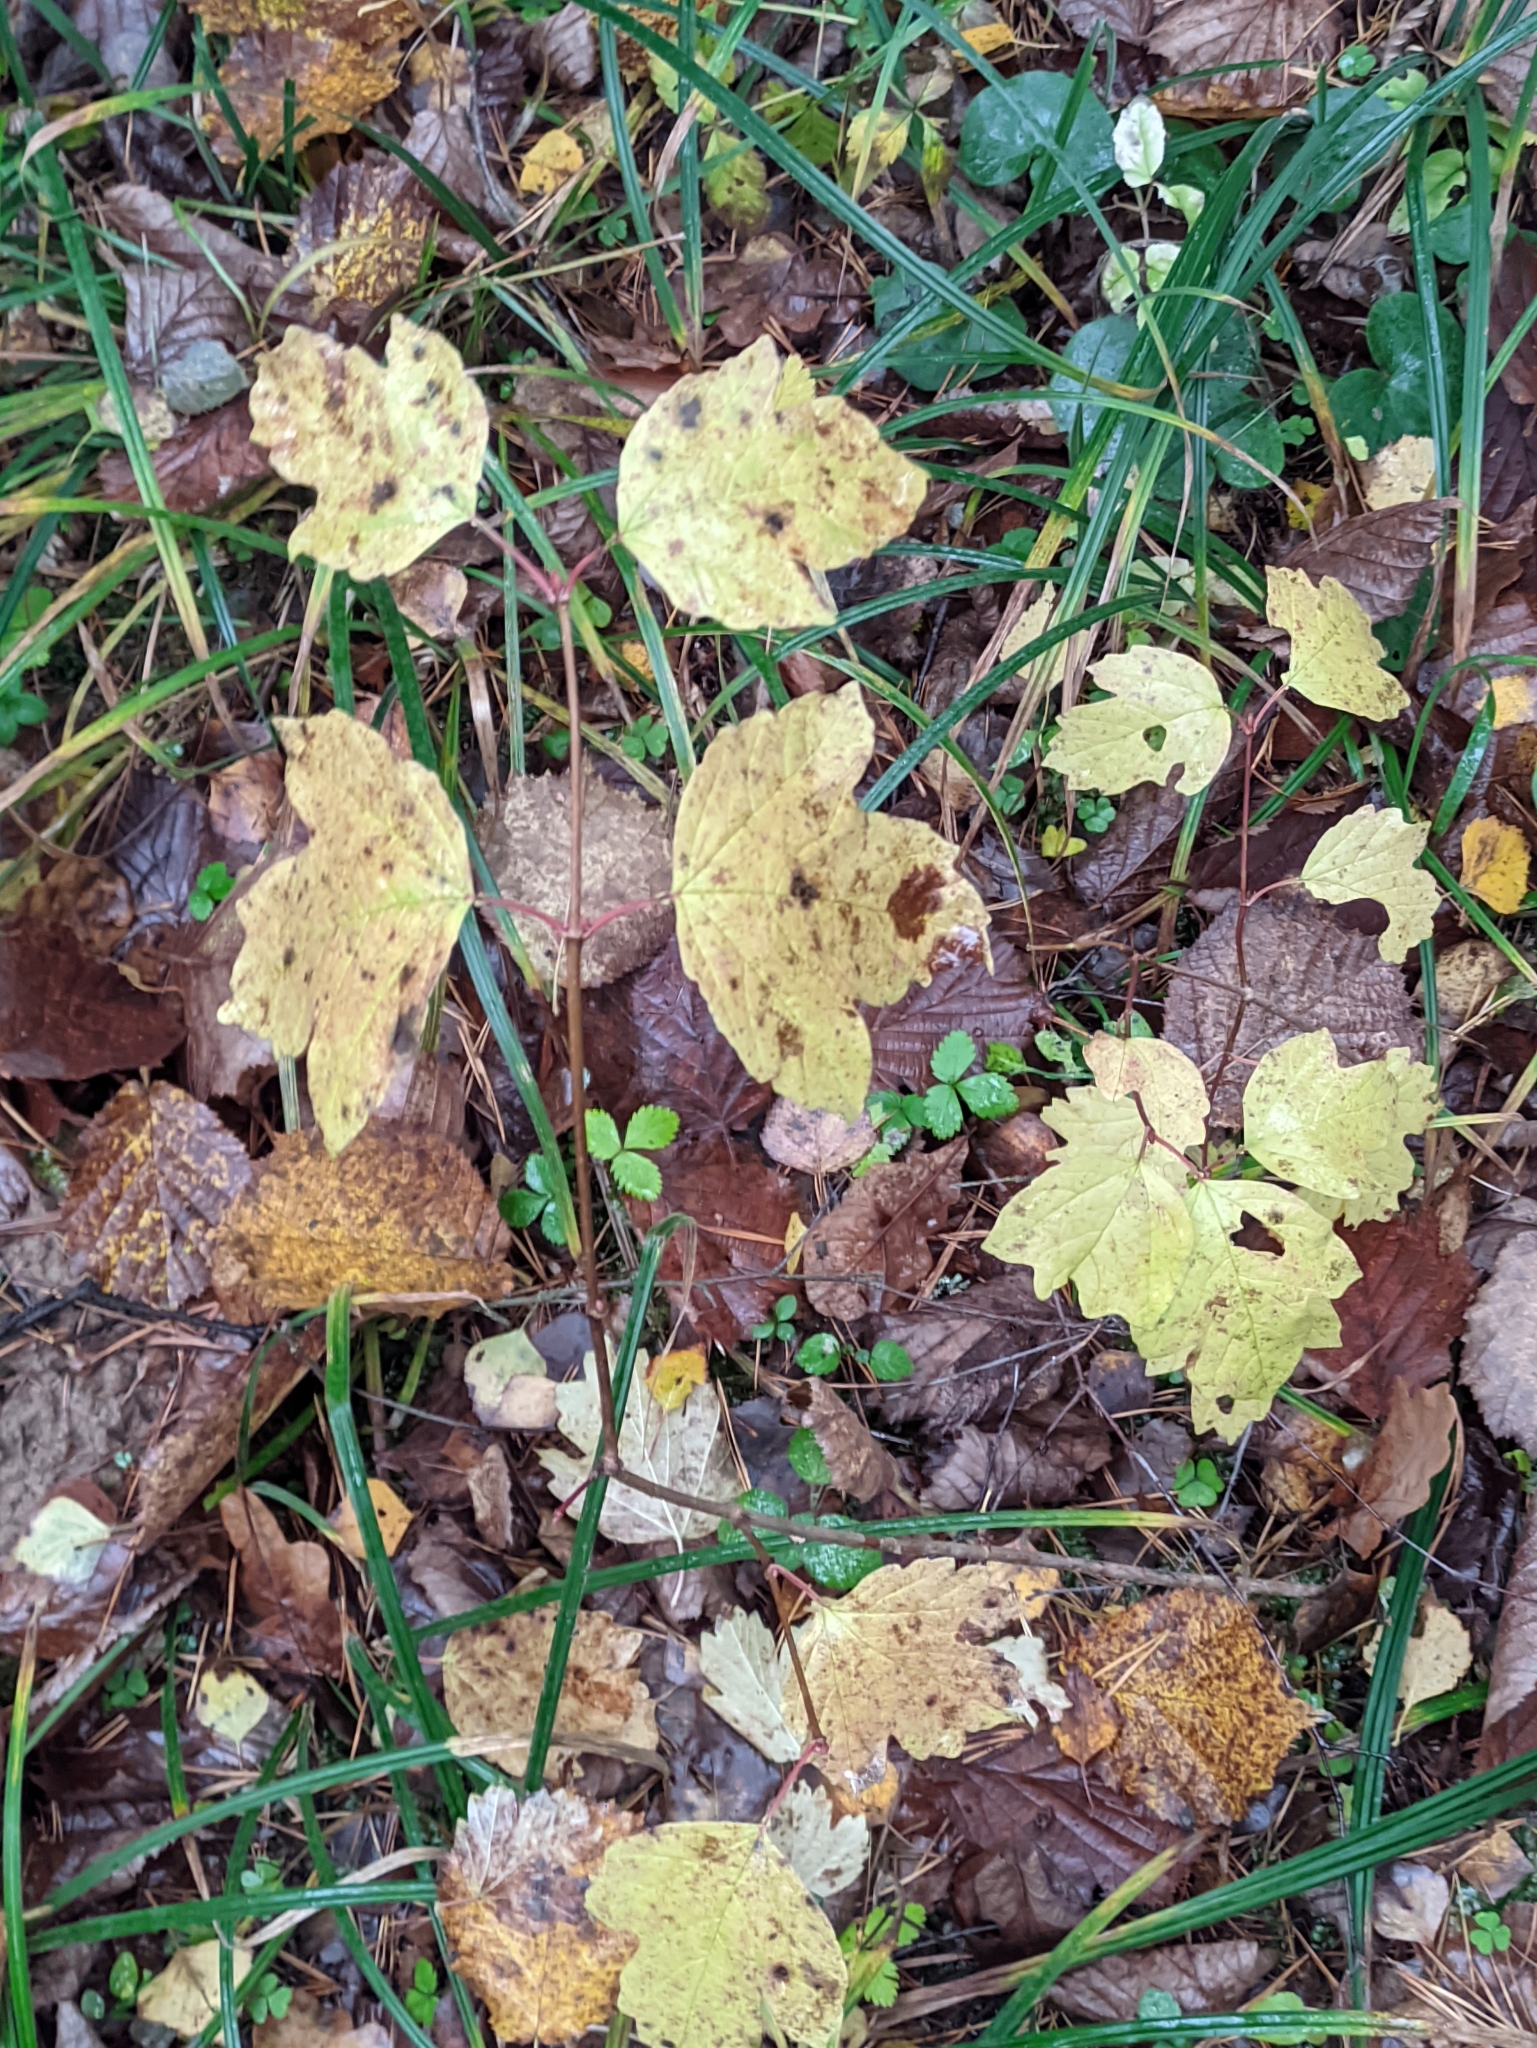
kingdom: Plantae
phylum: Tracheophyta
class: Magnoliopsida
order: Dipsacales
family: Viburnaceae
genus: Viburnum
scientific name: Viburnum opulus
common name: Guelder-rose
